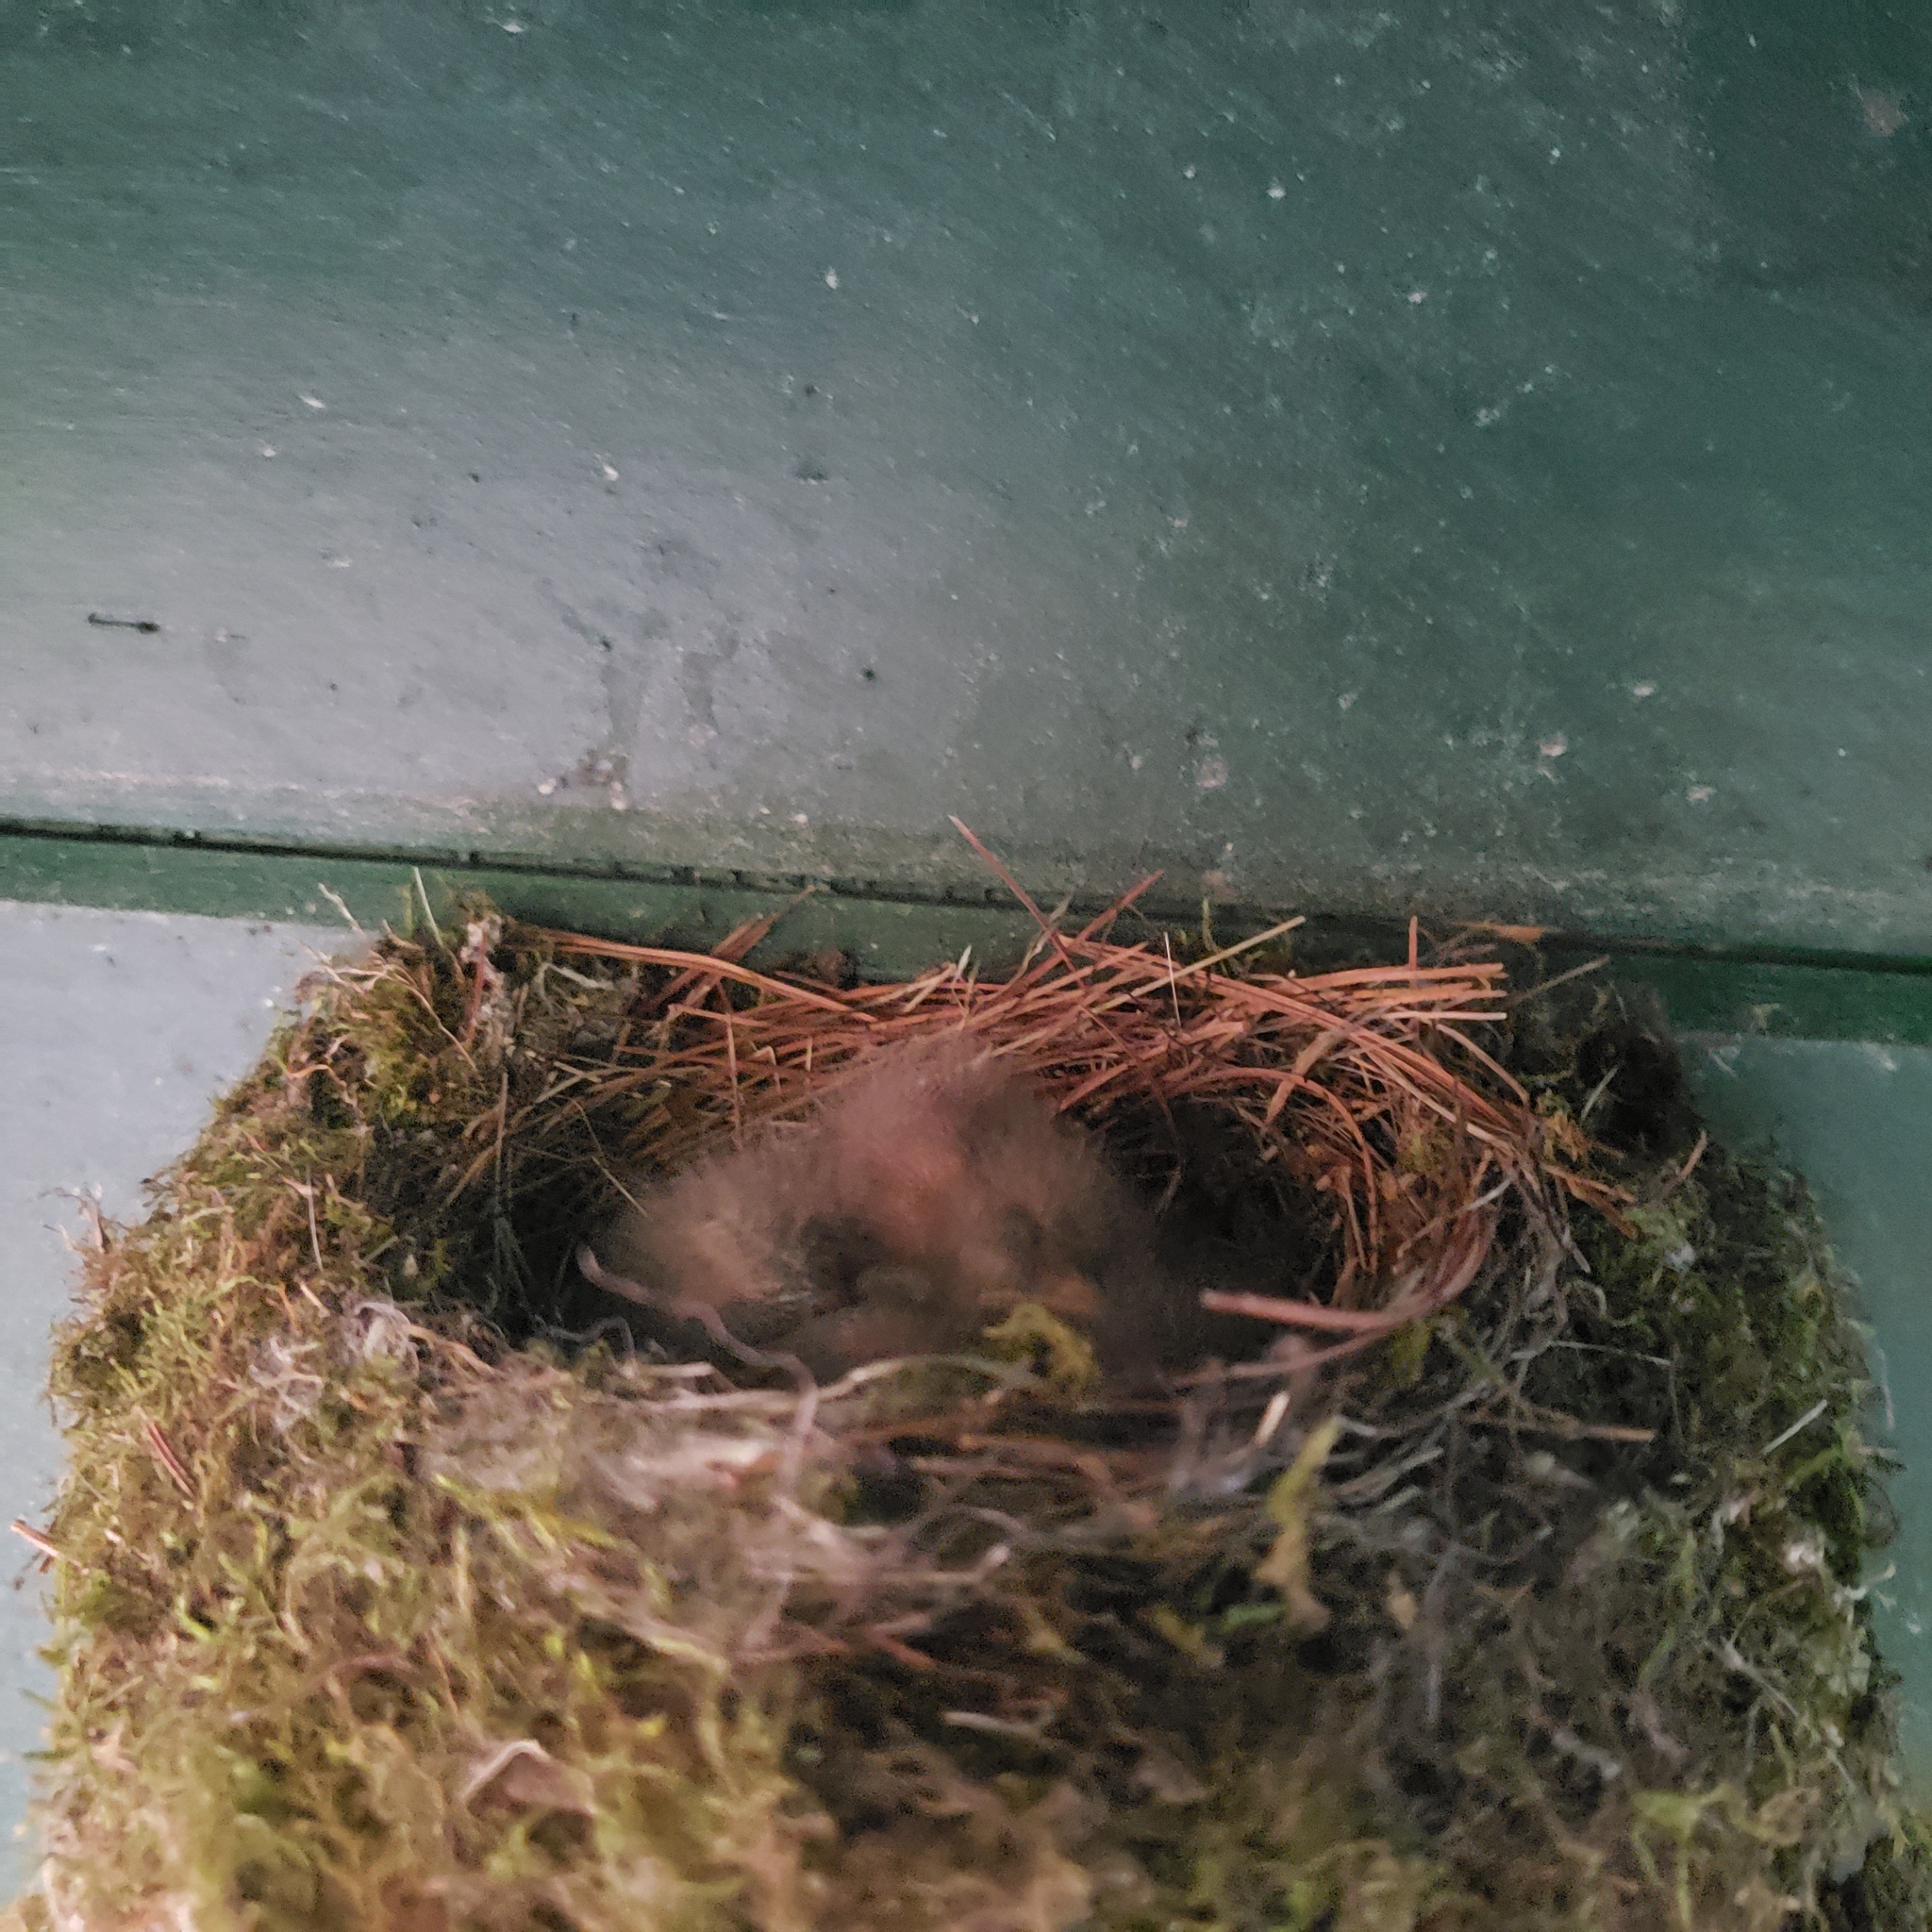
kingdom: Animalia
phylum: Chordata
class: Aves
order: Passeriformes
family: Tyrannidae
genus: Sayornis
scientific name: Sayornis phoebe
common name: Eastern phoebe
